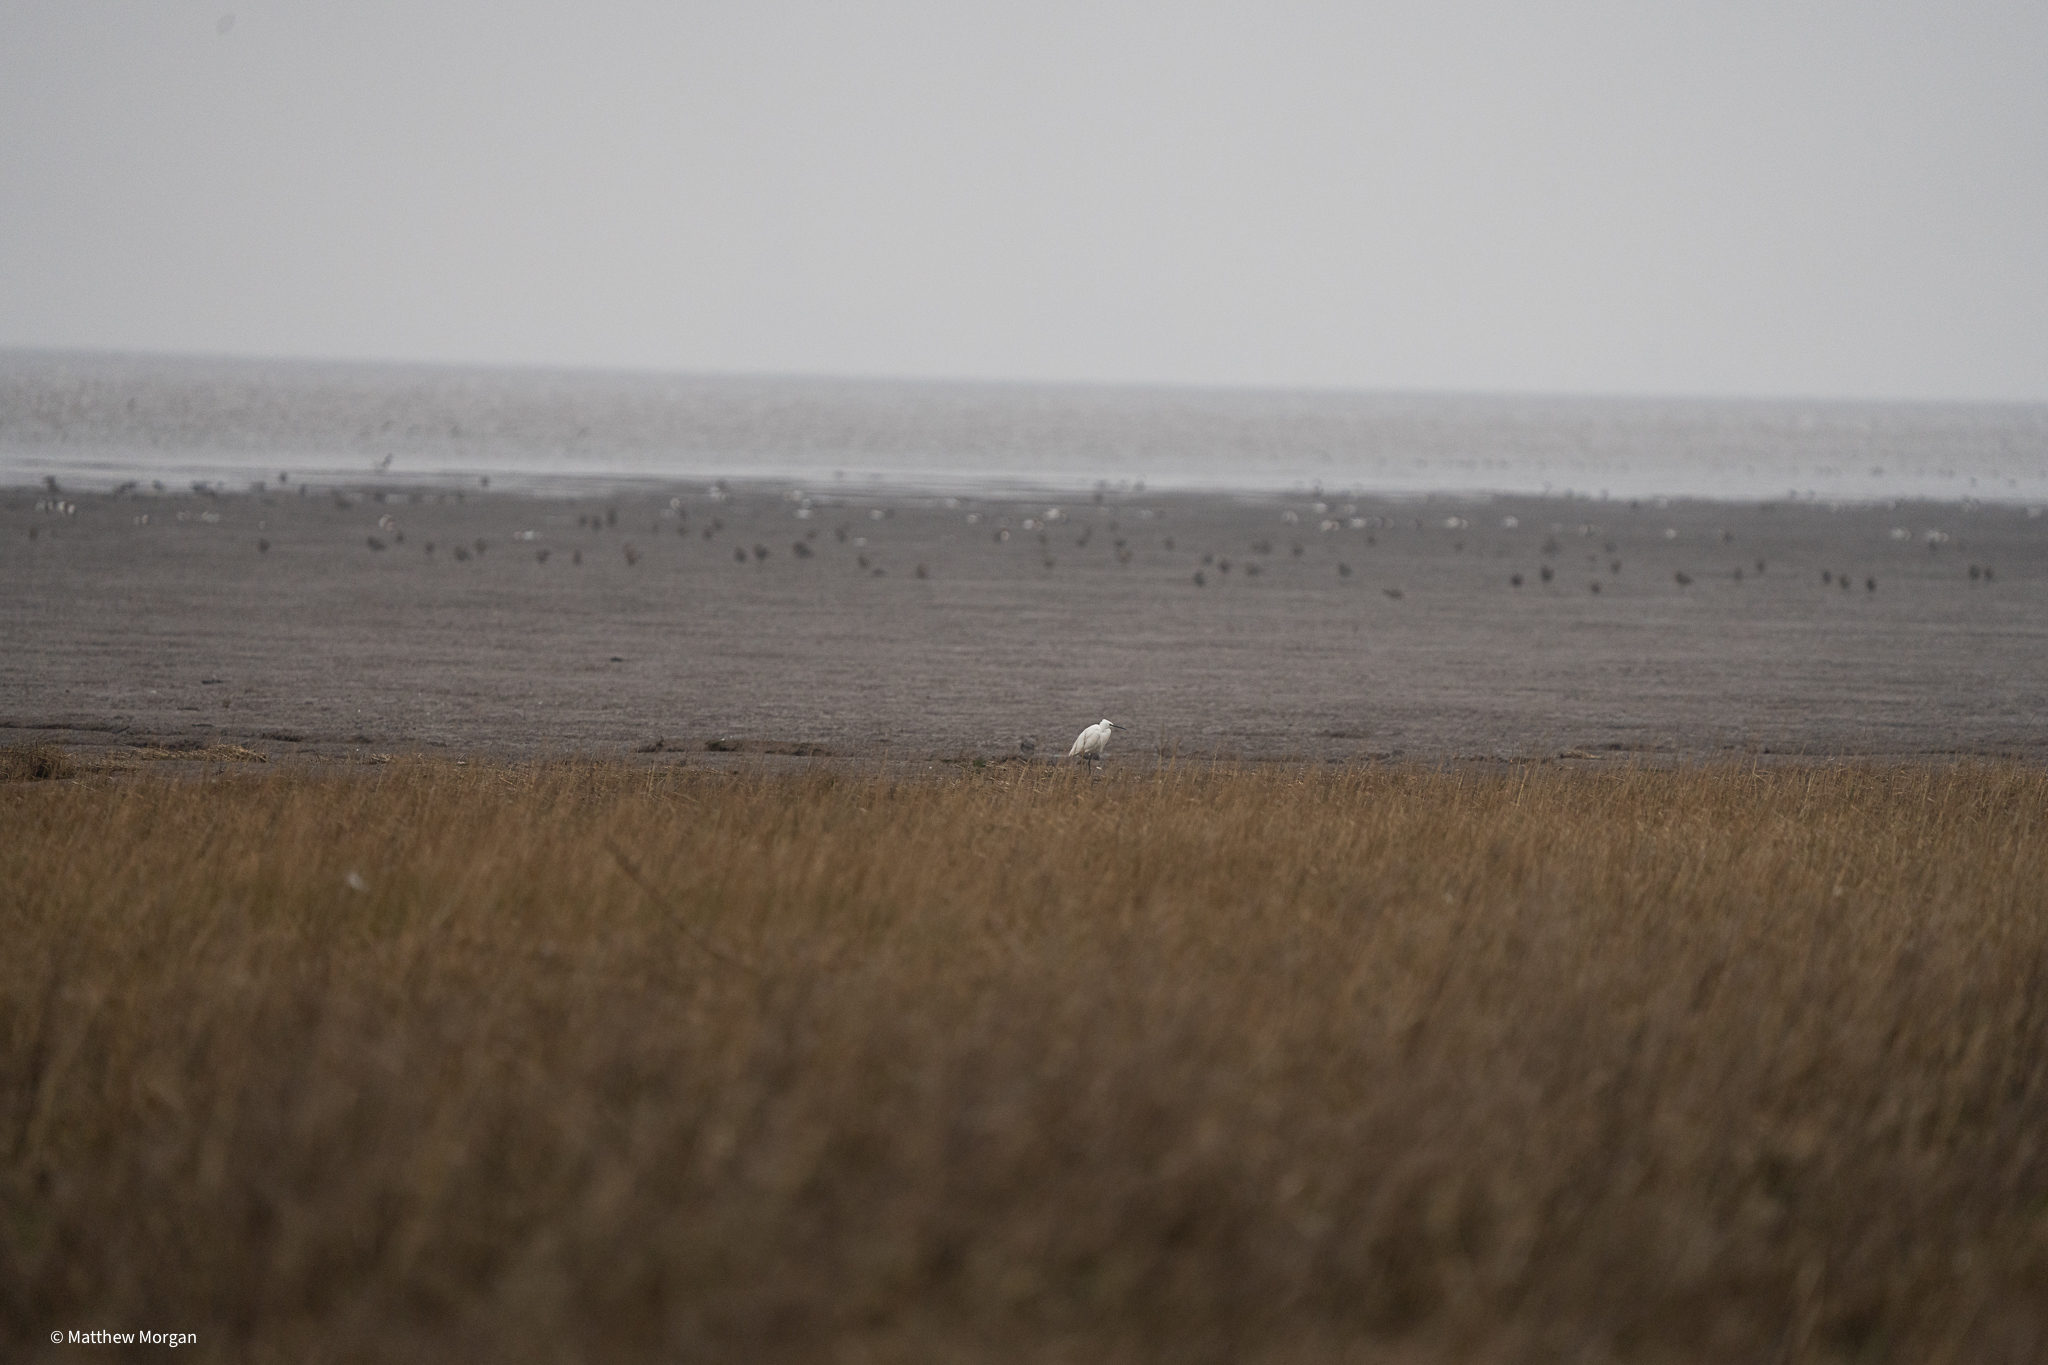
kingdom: Animalia
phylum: Chordata
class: Aves
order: Pelecaniformes
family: Ardeidae
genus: Egretta
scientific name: Egretta garzetta
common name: Little egret
